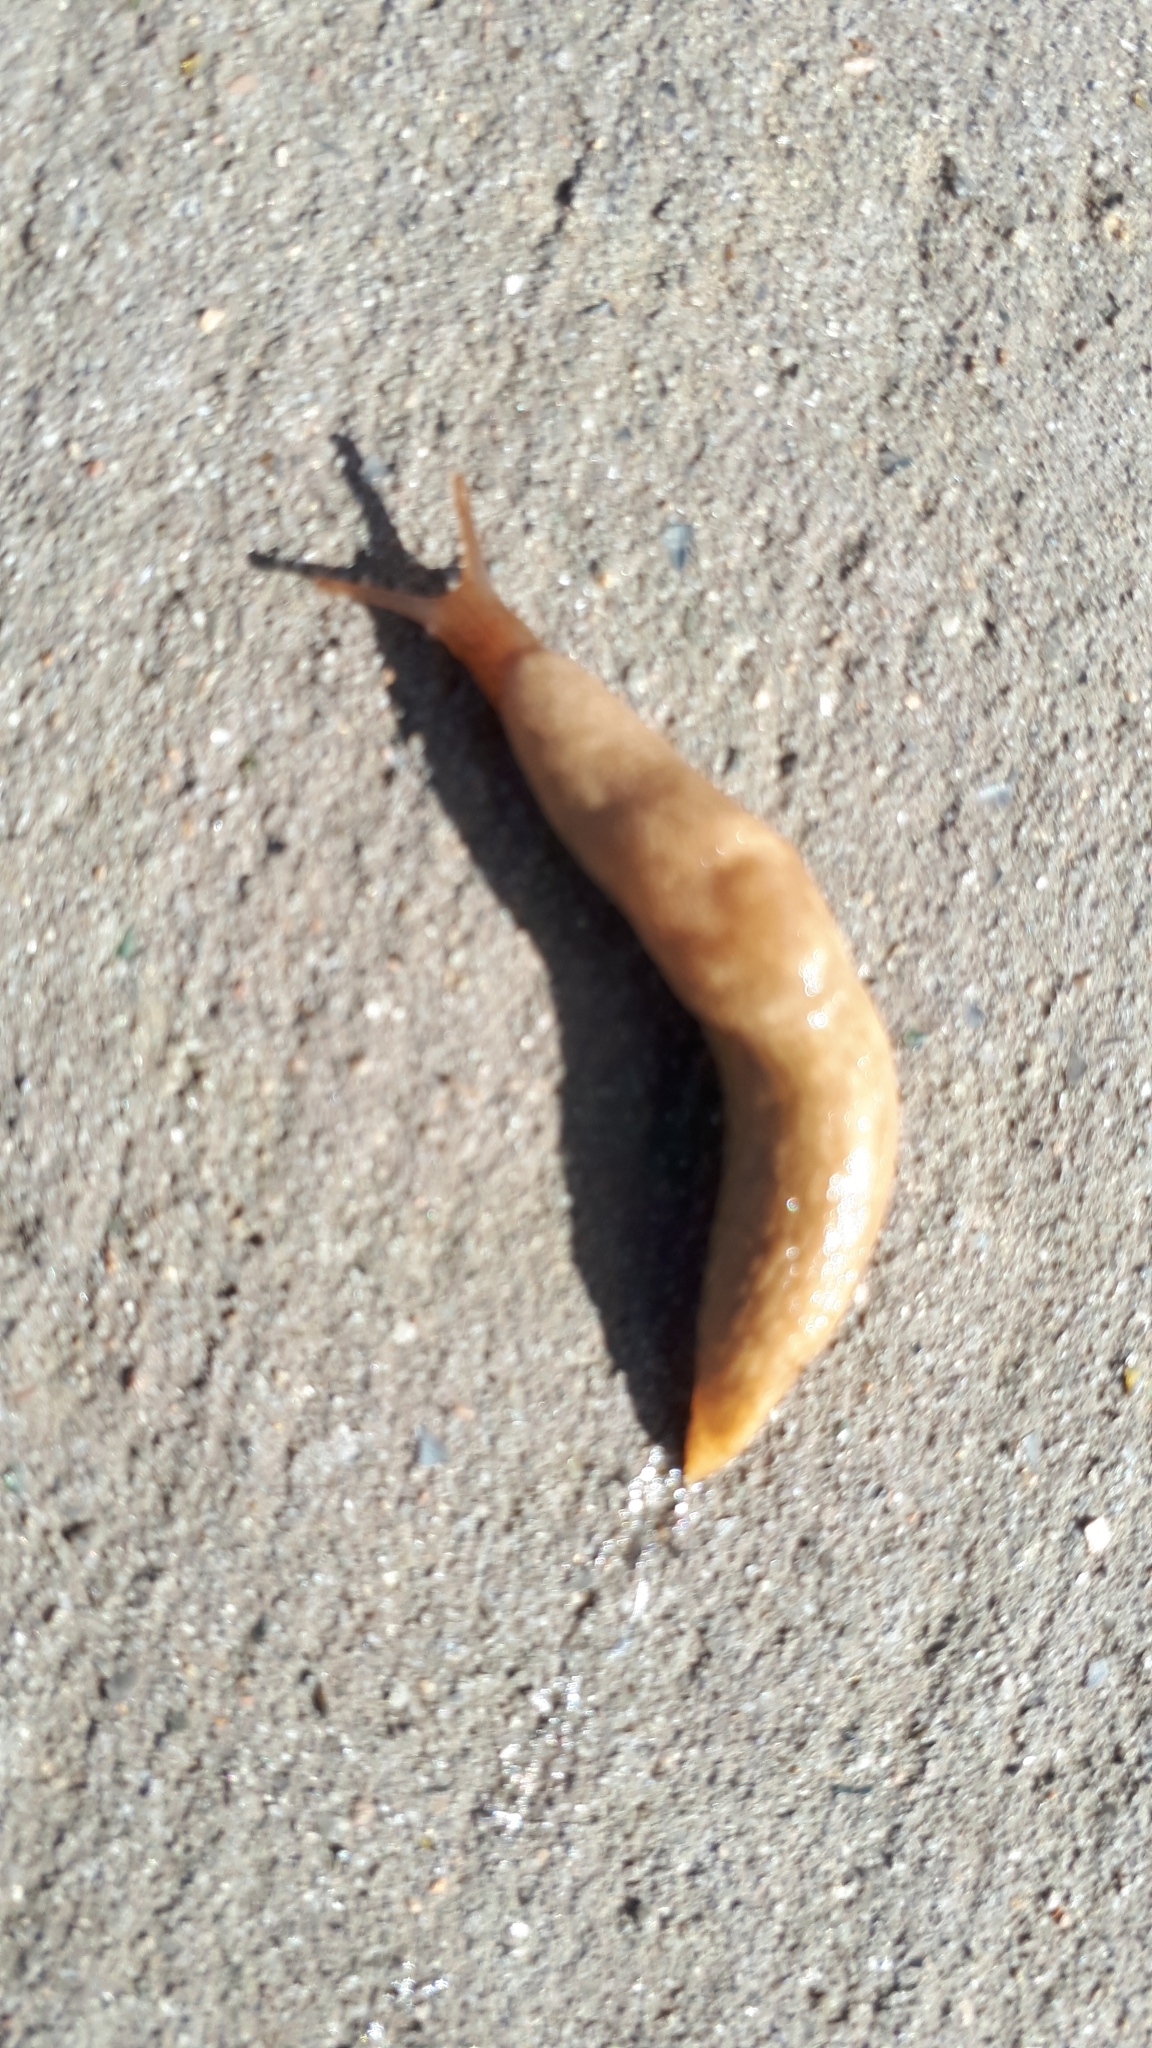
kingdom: Animalia
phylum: Mollusca
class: Gastropoda
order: Stylommatophora
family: Agriolimacidae
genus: Deroceras
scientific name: Deroceras reticulatum
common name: Gray field slug
